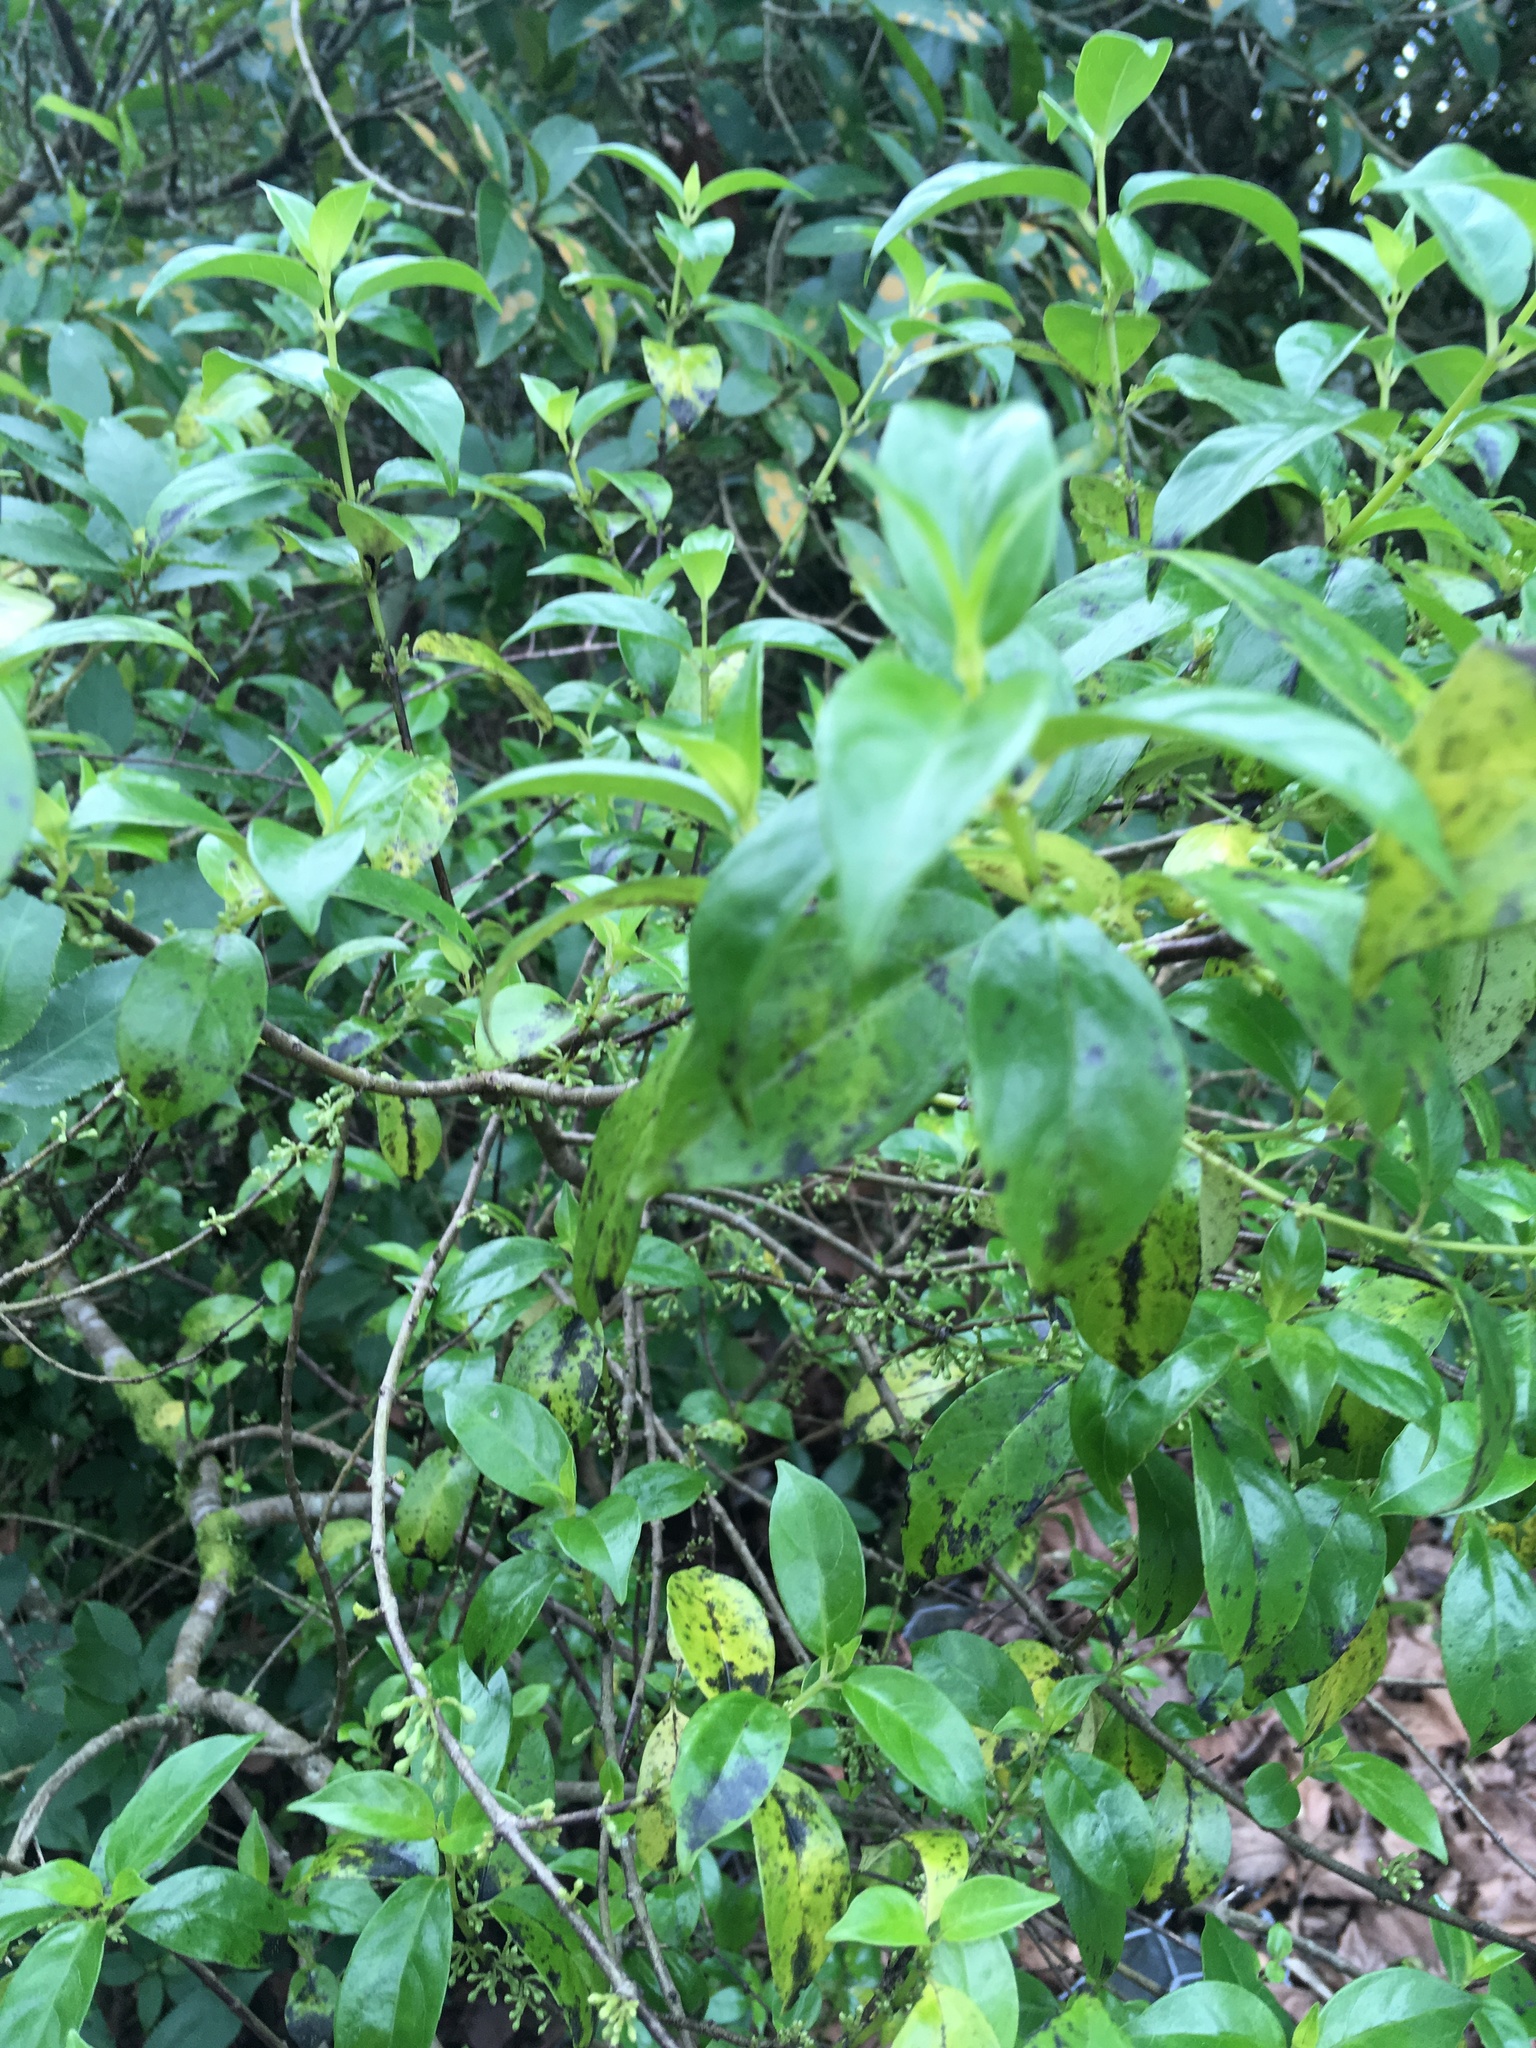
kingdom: Plantae
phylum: Tracheophyta
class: Magnoliopsida
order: Gentianales
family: Loganiaceae
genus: Geniostoma
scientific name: Geniostoma ligustrifolium
